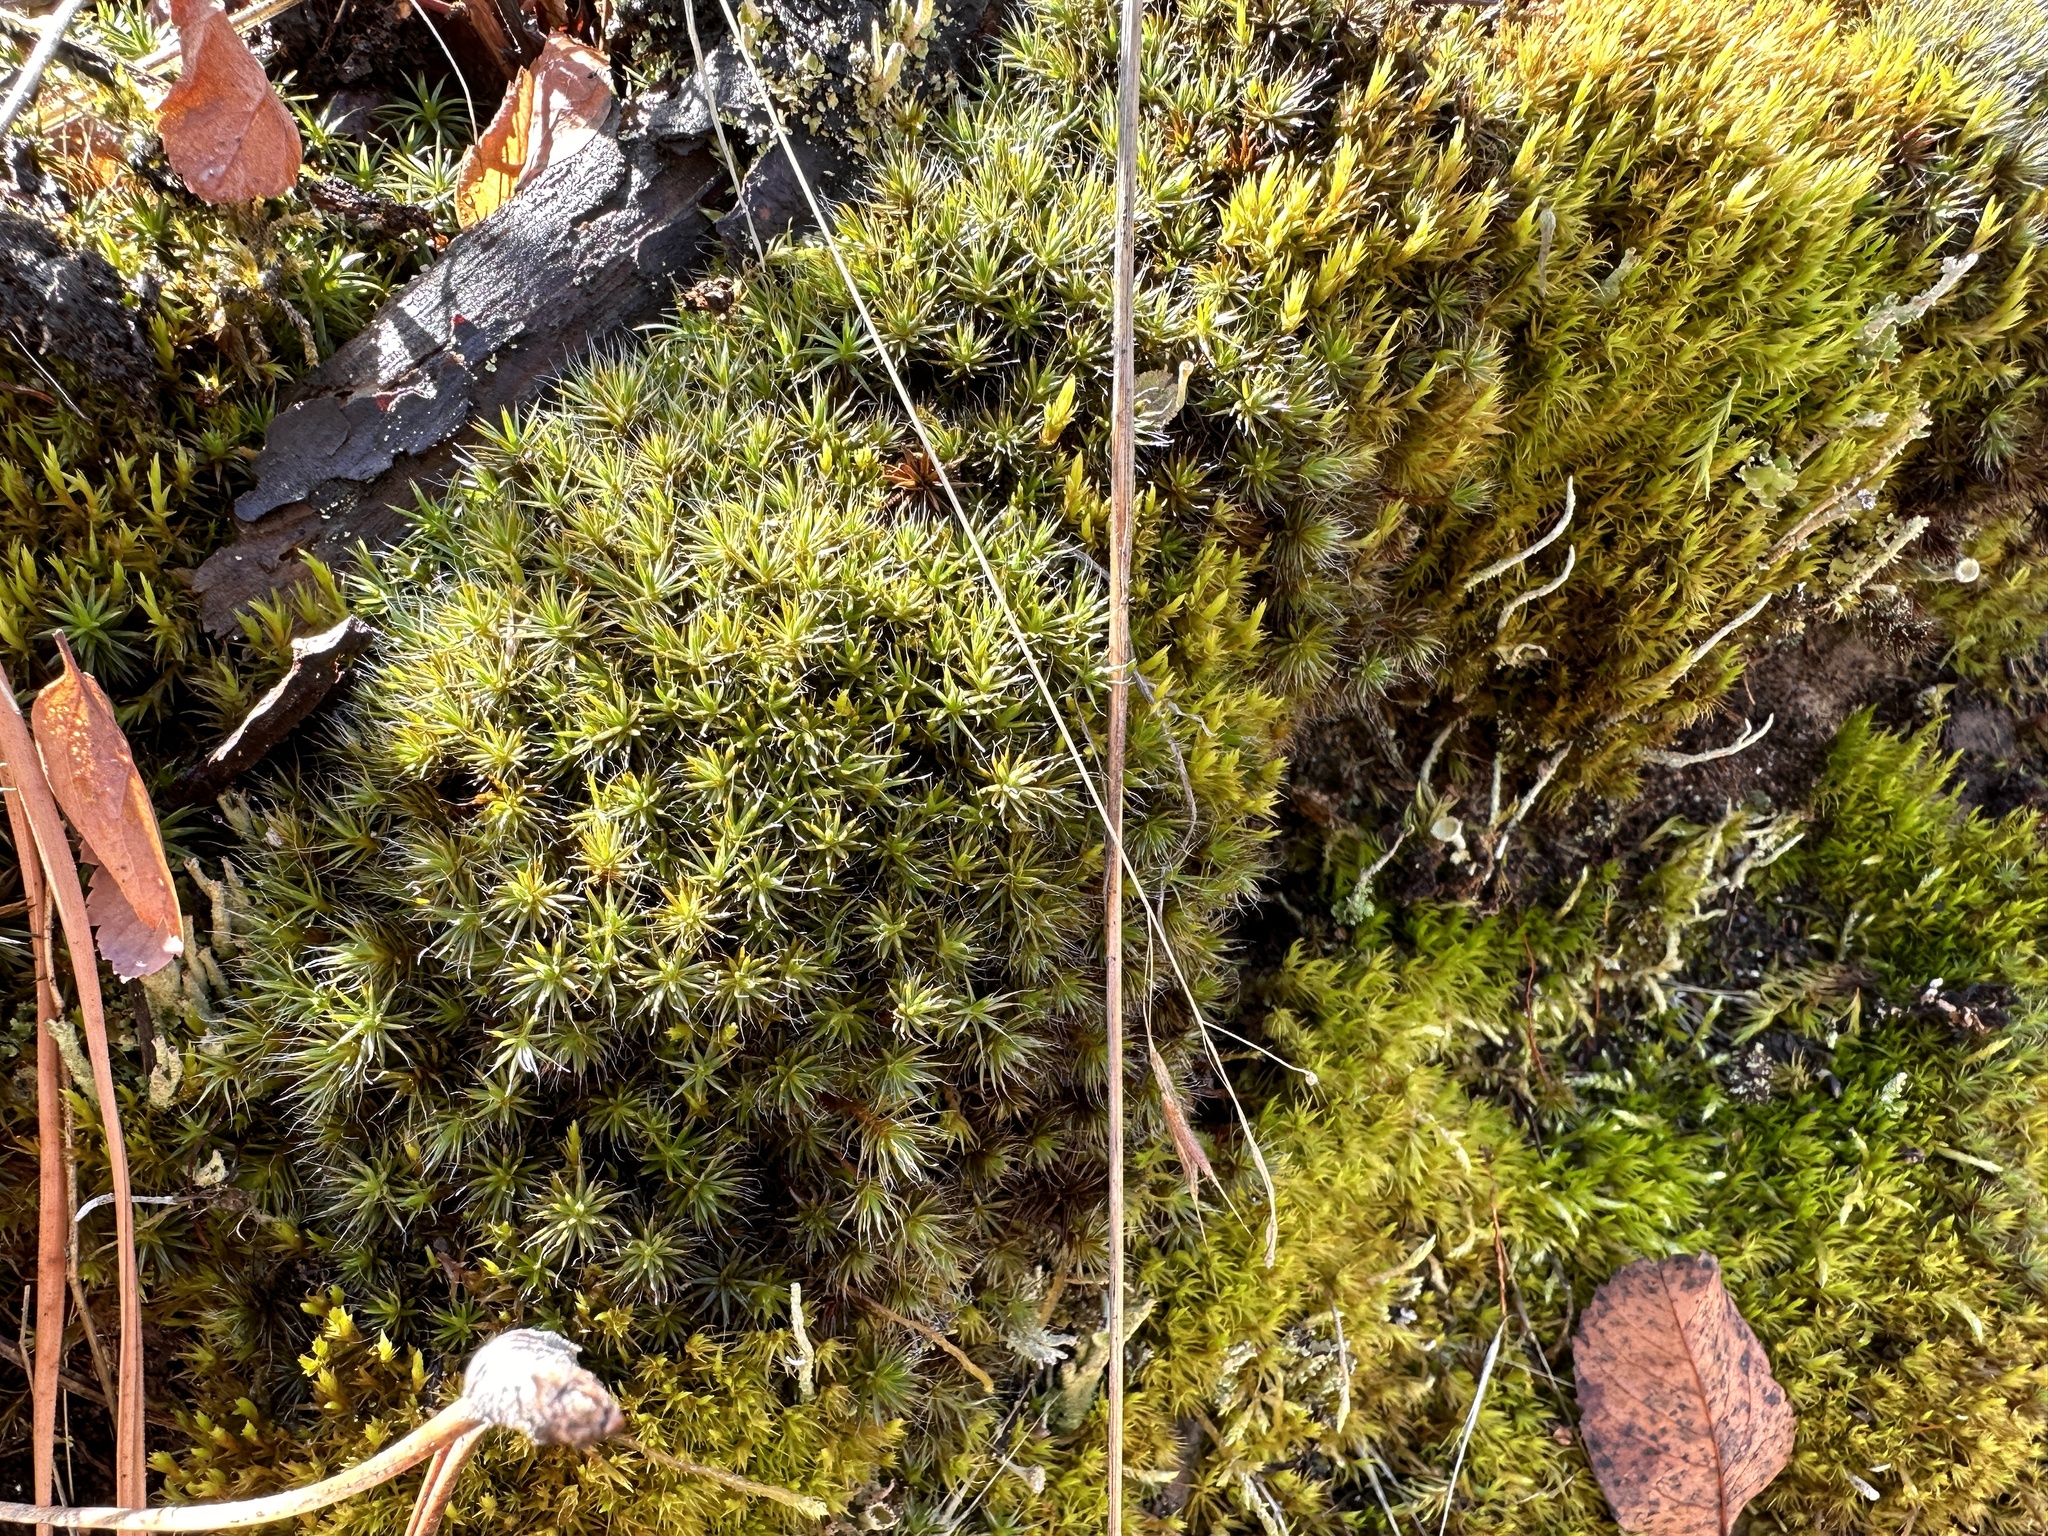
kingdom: Plantae
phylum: Bryophyta
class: Polytrichopsida
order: Polytrichales
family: Polytrichaceae
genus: Polytrichum
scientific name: Polytrichum piliferum
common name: Bristly haircap
